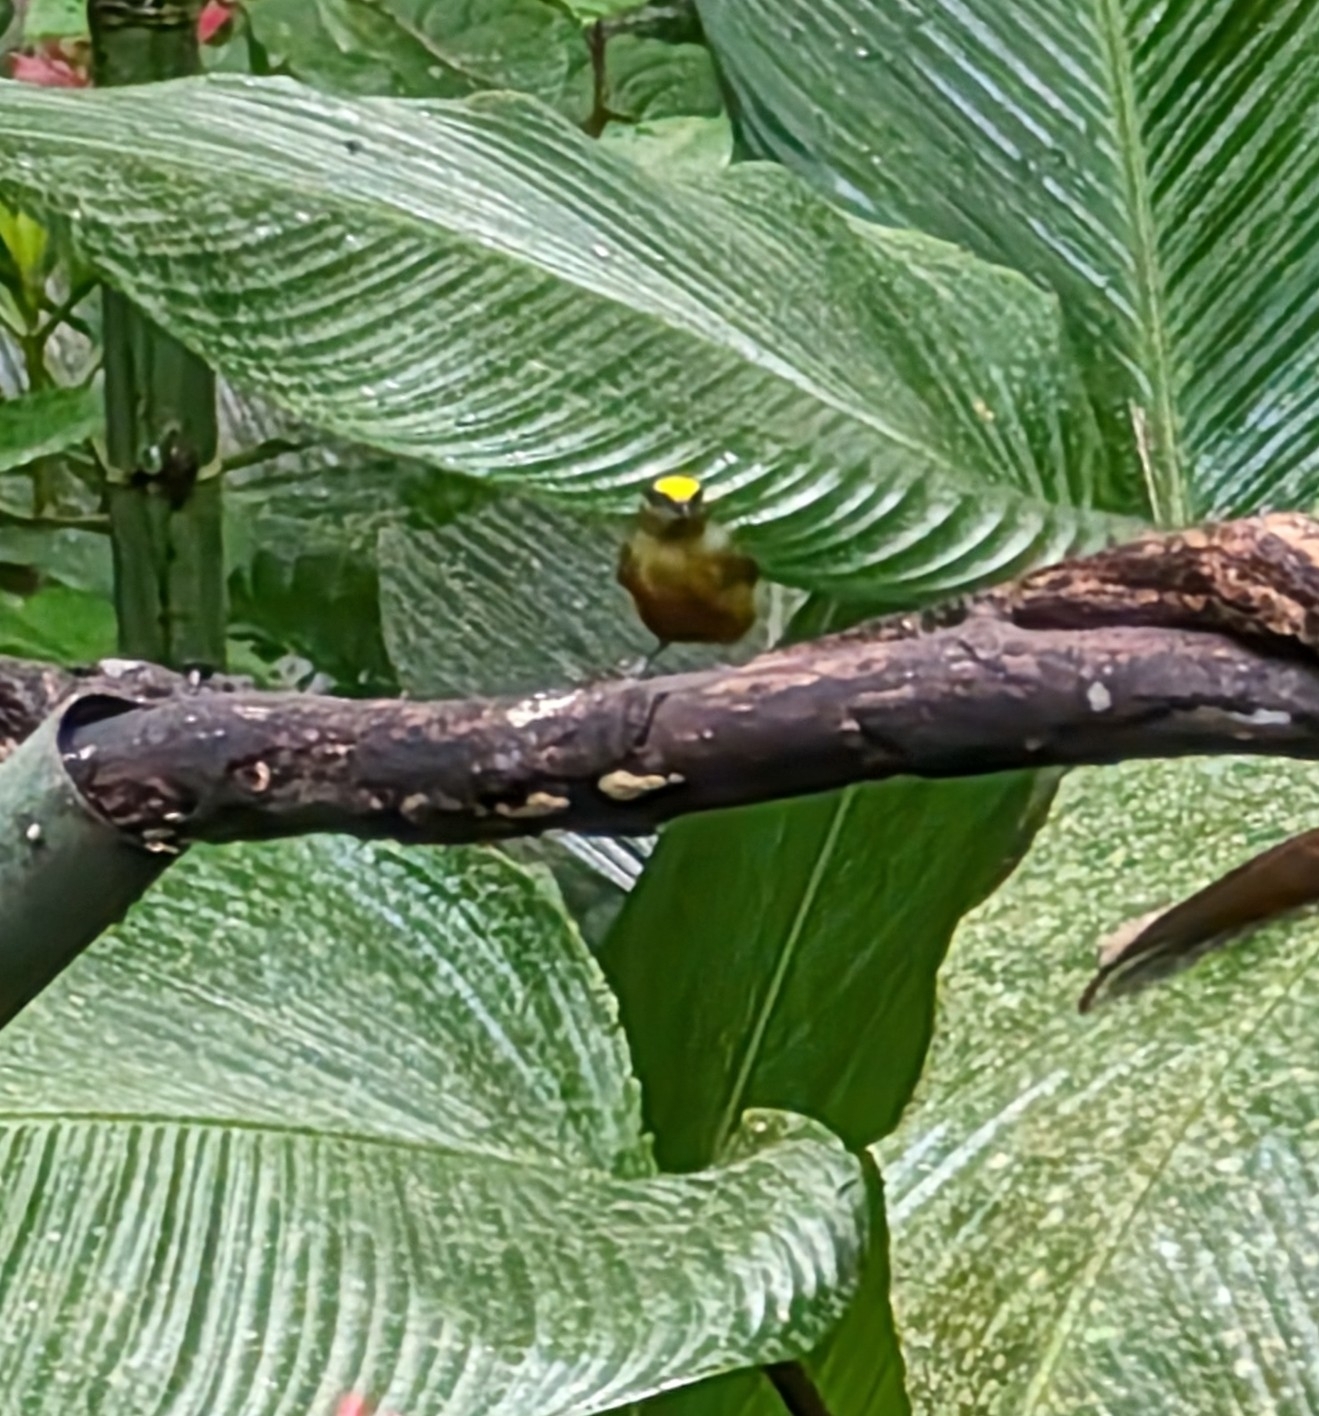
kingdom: Animalia
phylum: Chordata
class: Aves
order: Passeriformes
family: Fringillidae
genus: Euphonia
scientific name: Euphonia gouldi
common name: Olive-backed euphonia
